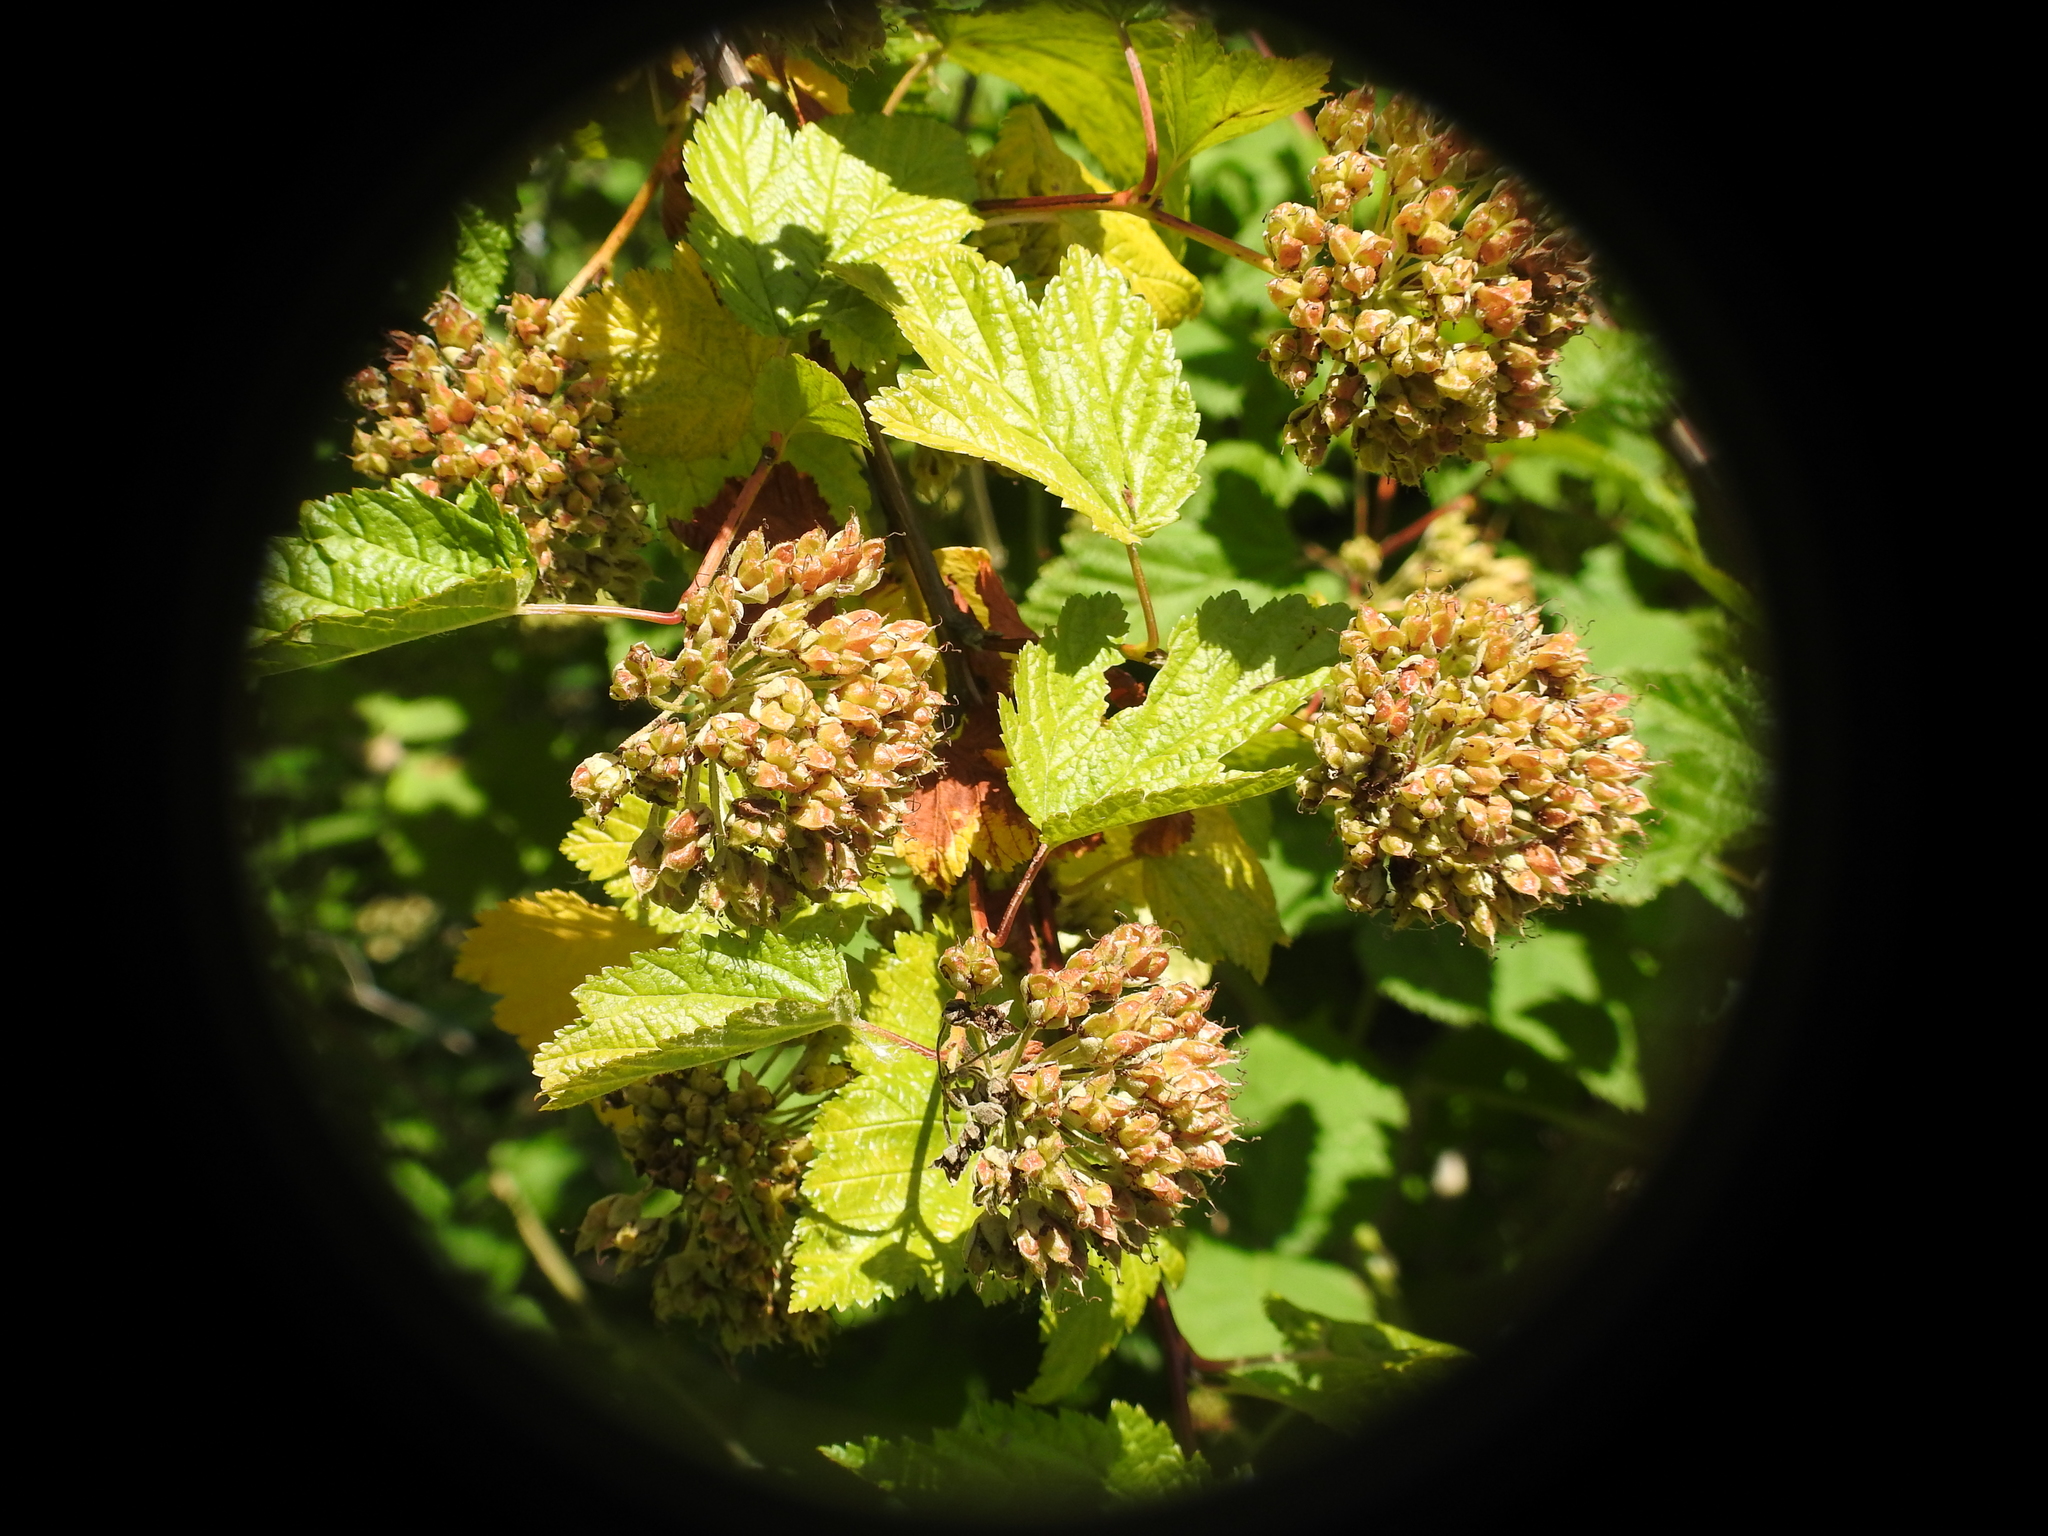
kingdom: Plantae
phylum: Tracheophyta
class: Magnoliopsida
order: Rosales
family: Rosaceae
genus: Physocarpus
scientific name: Physocarpus capitatus
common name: Pacific ninebark
